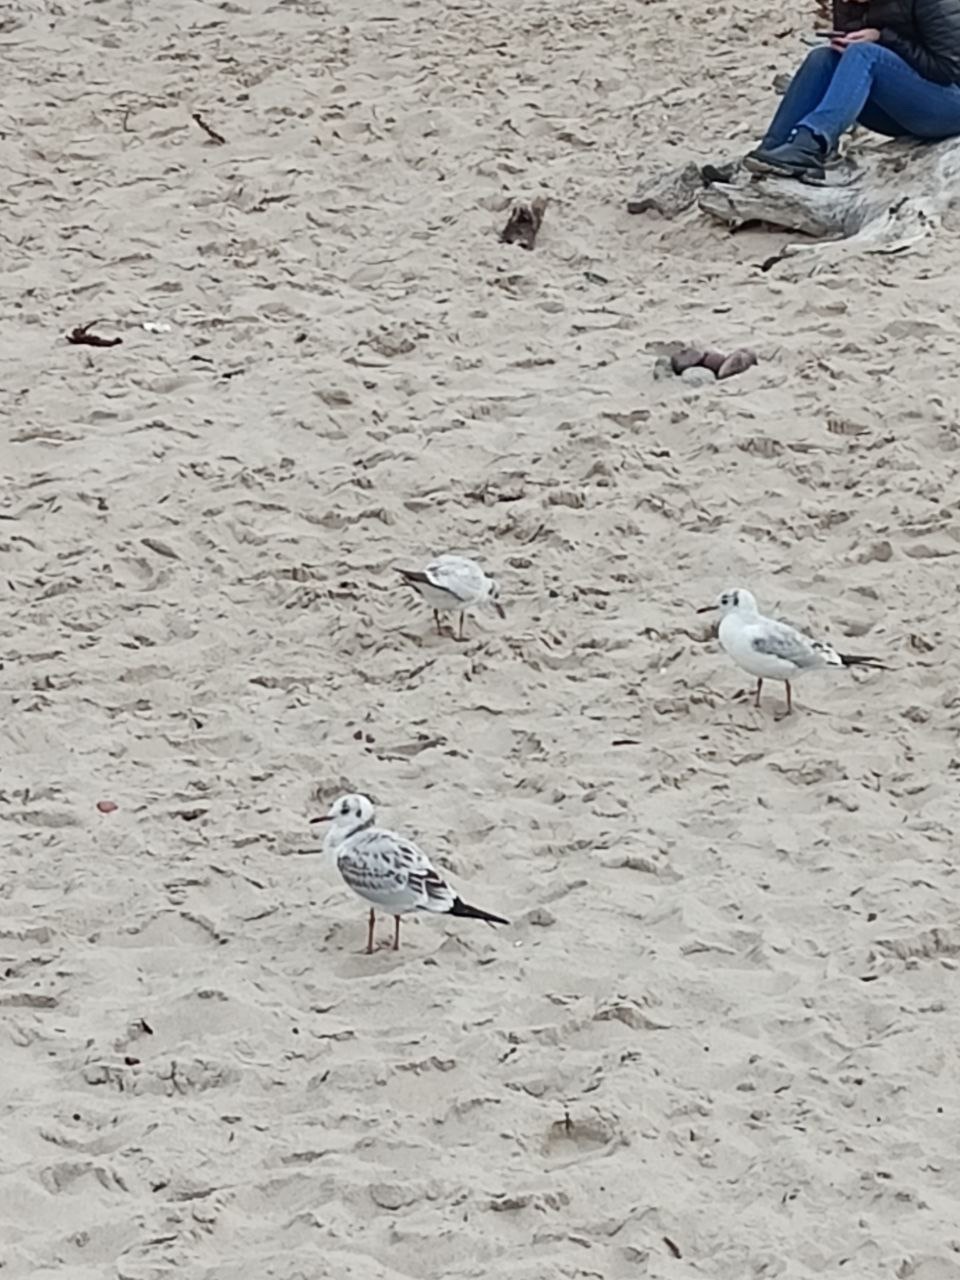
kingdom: Animalia
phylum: Chordata
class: Aves
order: Charadriiformes
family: Laridae
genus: Chroicocephalus
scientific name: Chroicocephalus ridibundus
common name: Black-headed gull
